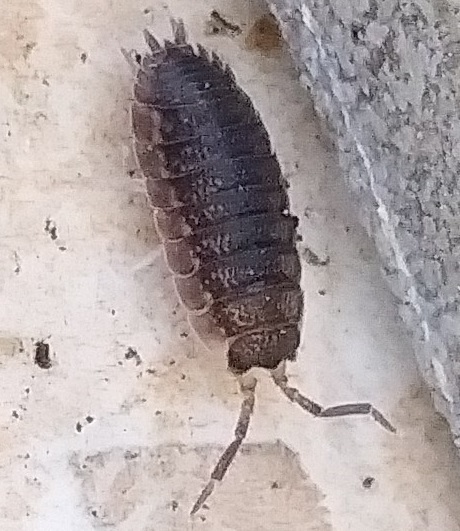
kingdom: Animalia
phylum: Arthropoda
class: Malacostraca
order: Isopoda
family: Porcellionidae
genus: Porcellio
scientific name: Porcellio scaber
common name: Common rough woodlouse
